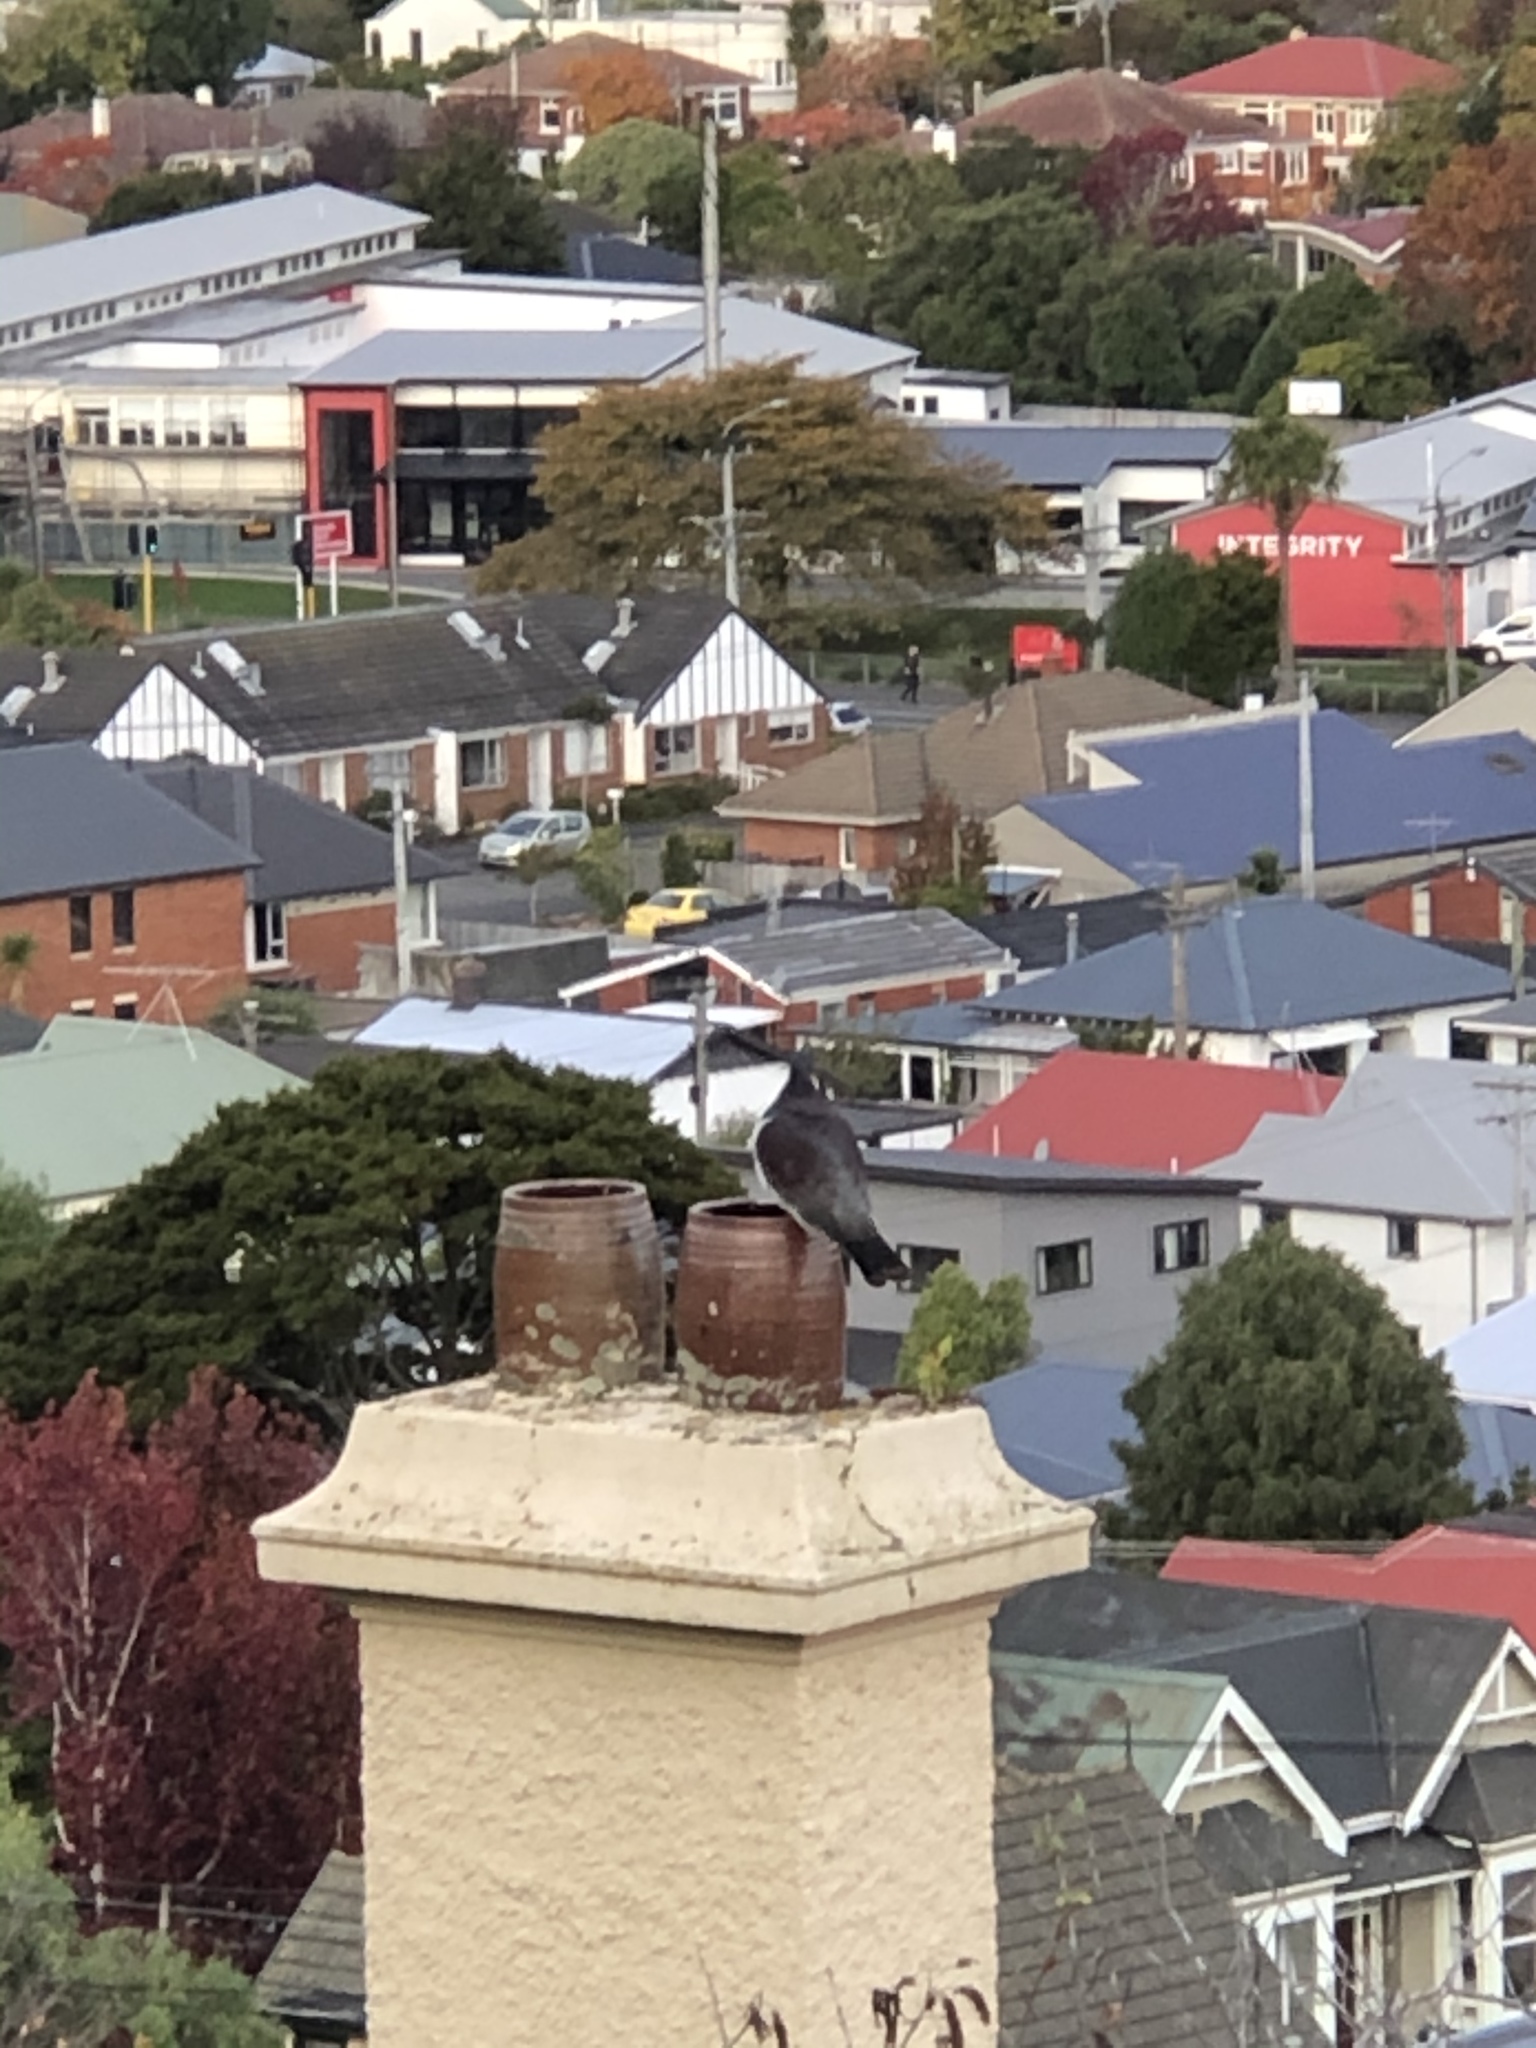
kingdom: Animalia
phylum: Chordata
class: Aves
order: Columbiformes
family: Columbidae
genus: Hemiphaga
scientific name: Hemiphaga novaeseelandiae
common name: New zealand pigeon
